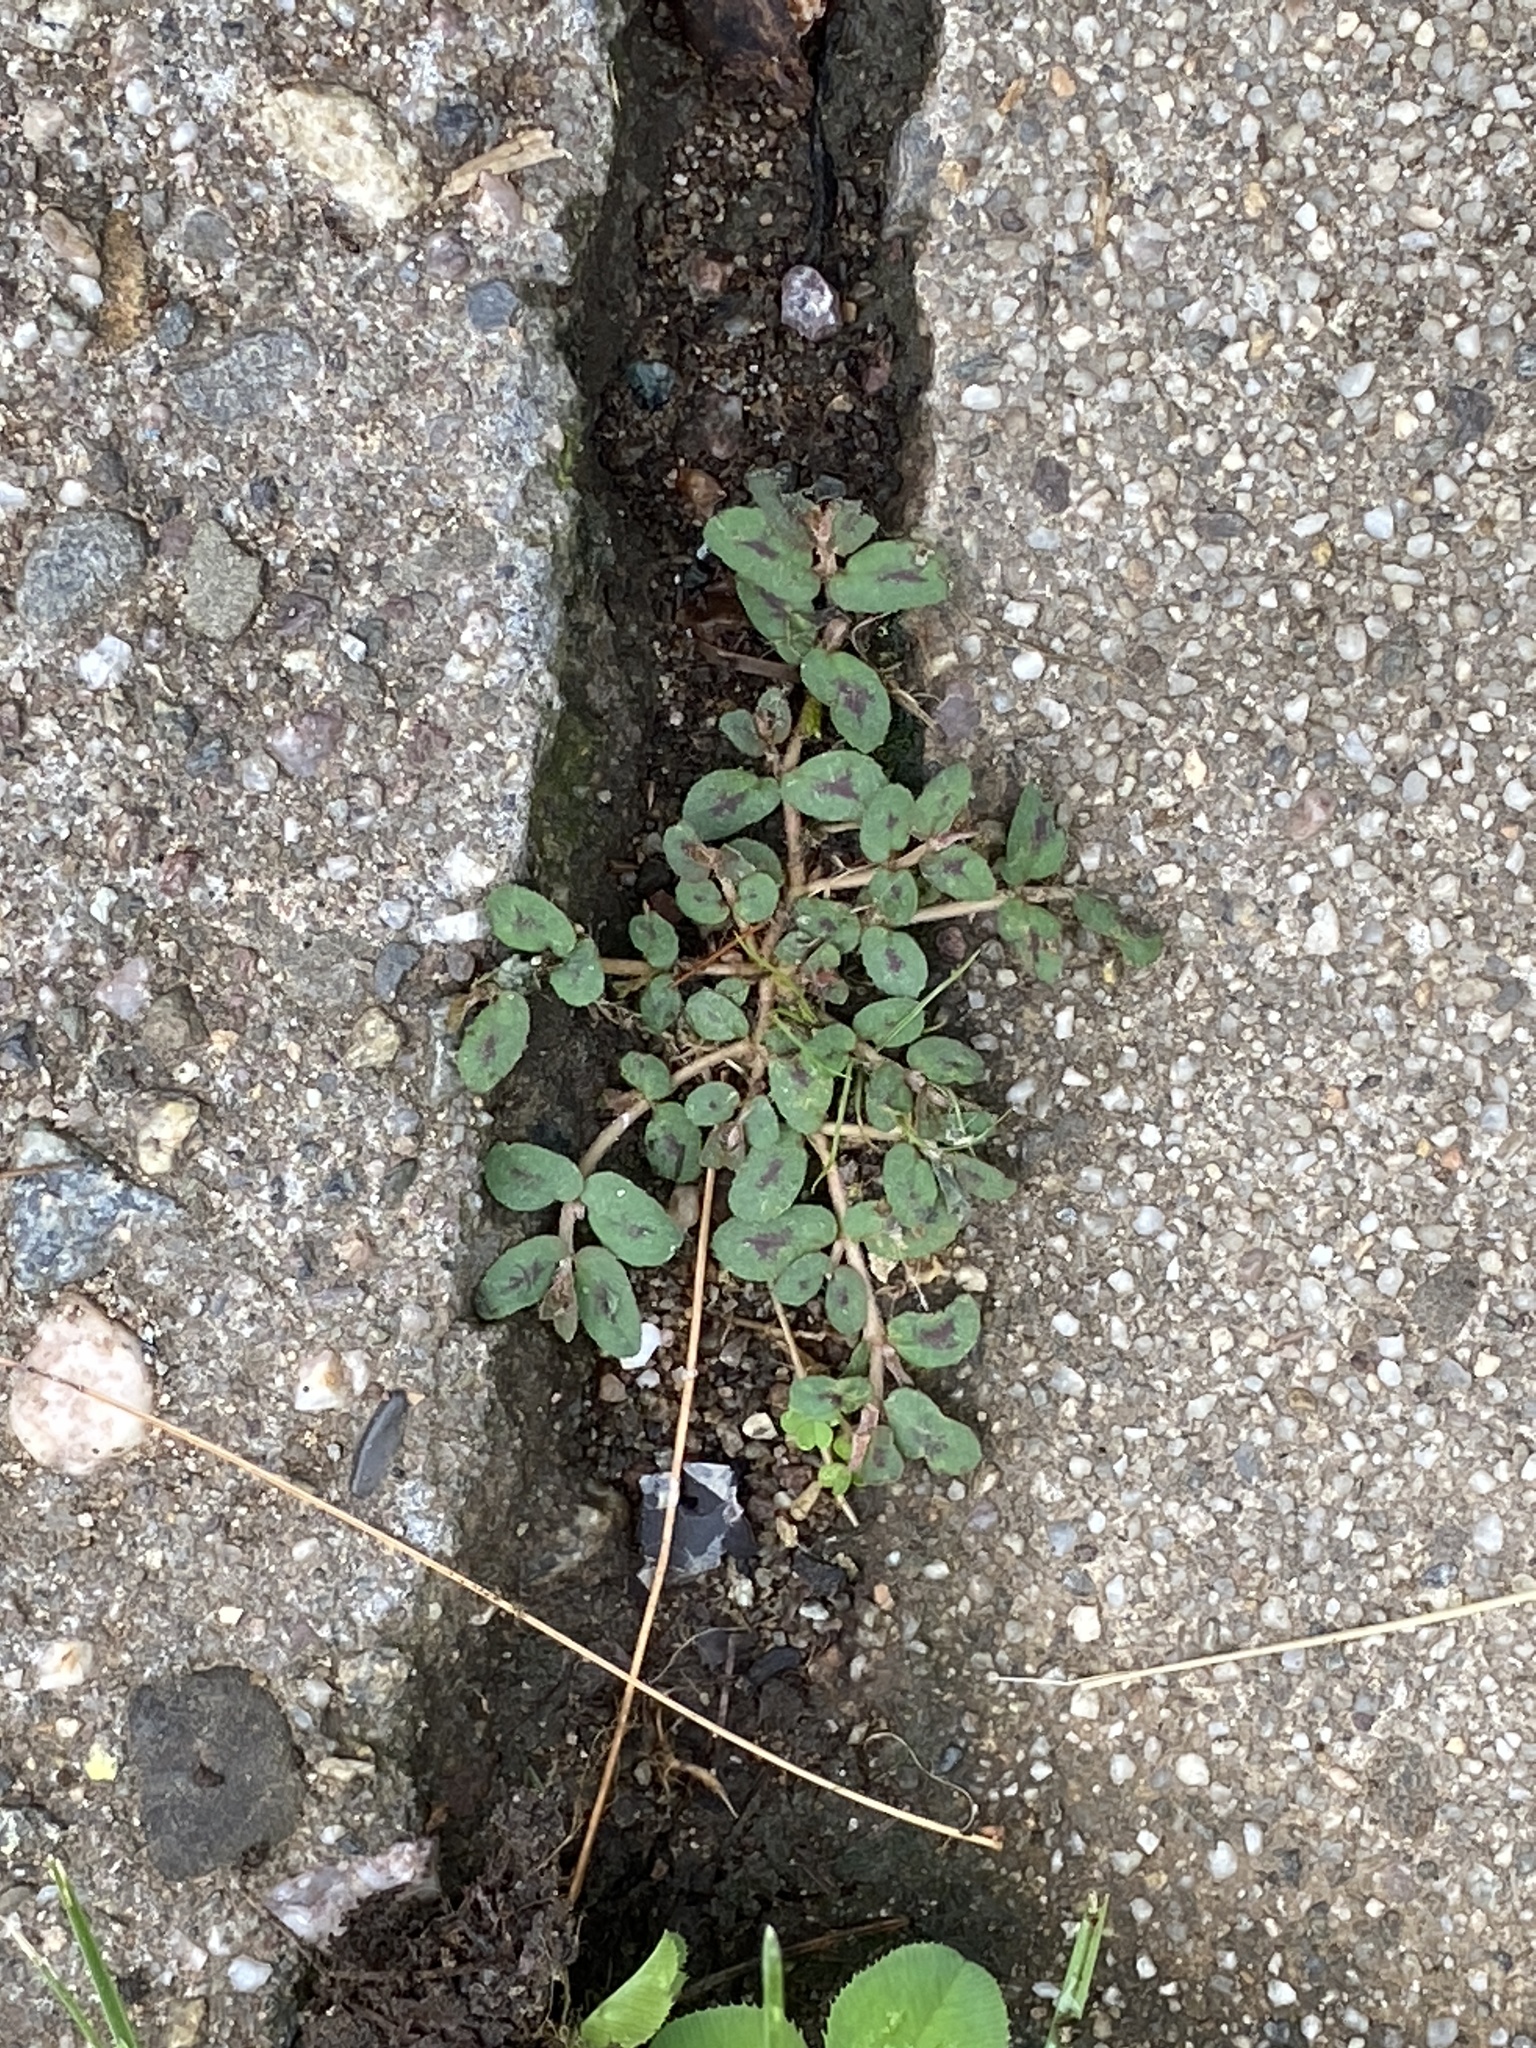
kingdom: Plantae
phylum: Tracheophyta
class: Magnoliopsida
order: Malpighiales
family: Euphorbiaceae
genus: Euphorbia
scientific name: Euphorbia maculata
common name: Spotted spurge
